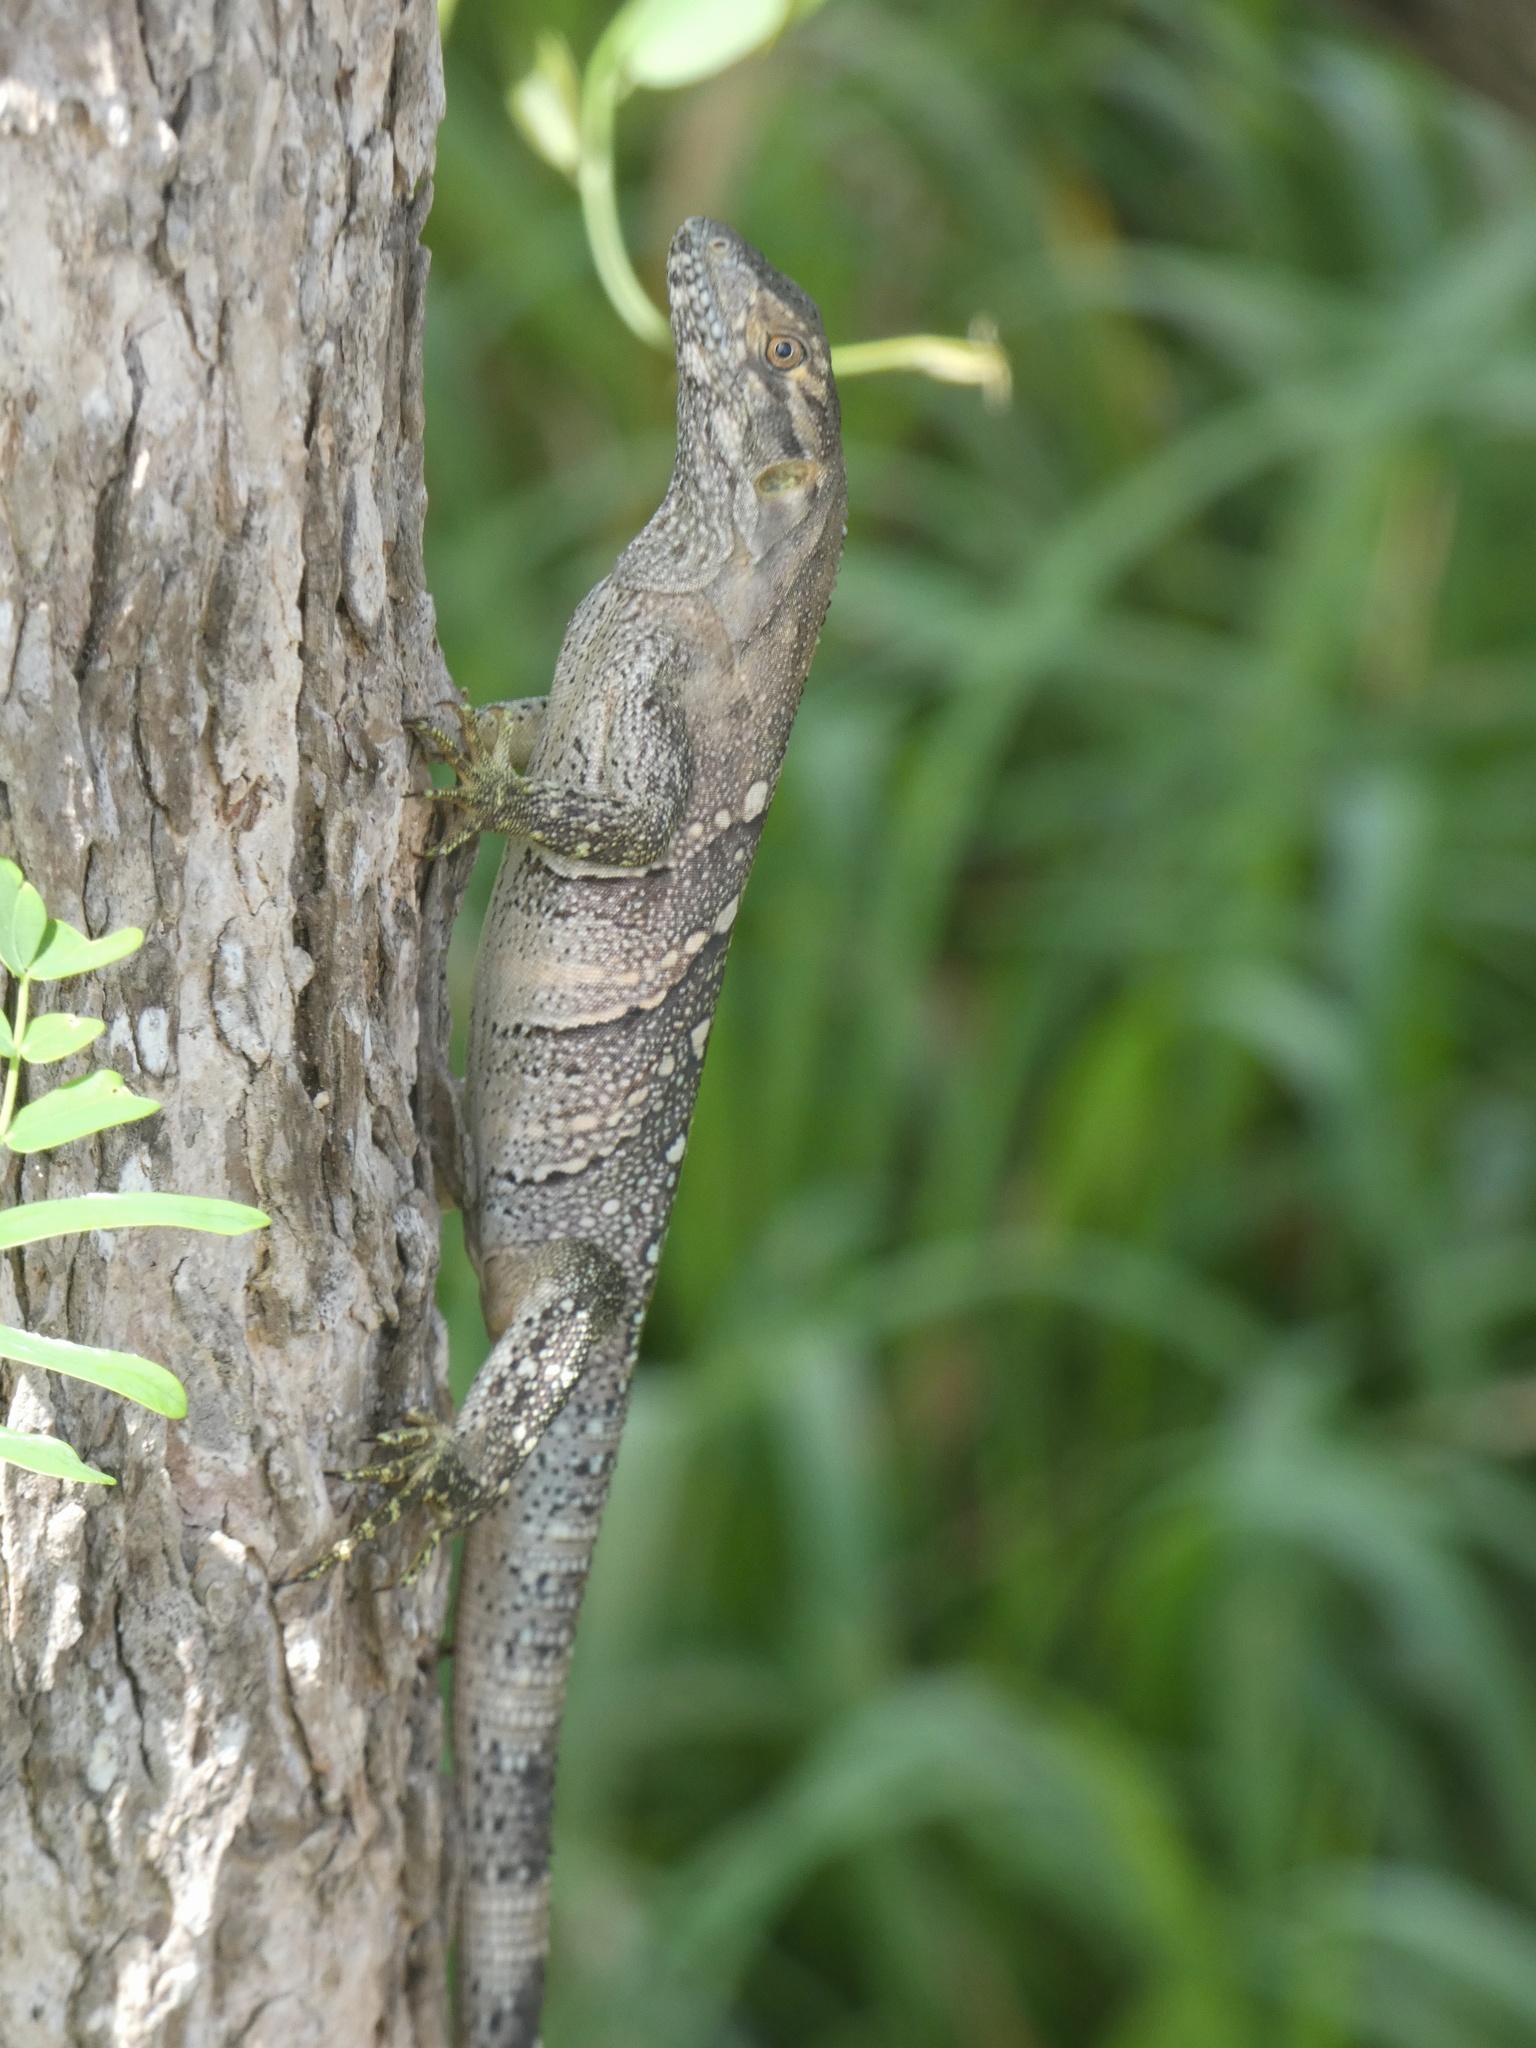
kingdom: Animalia
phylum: Chordata
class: Squamata
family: Iguanidae
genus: Ctenosaura
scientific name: Ctenosaura similis
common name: Black spiny-tailed iguana
